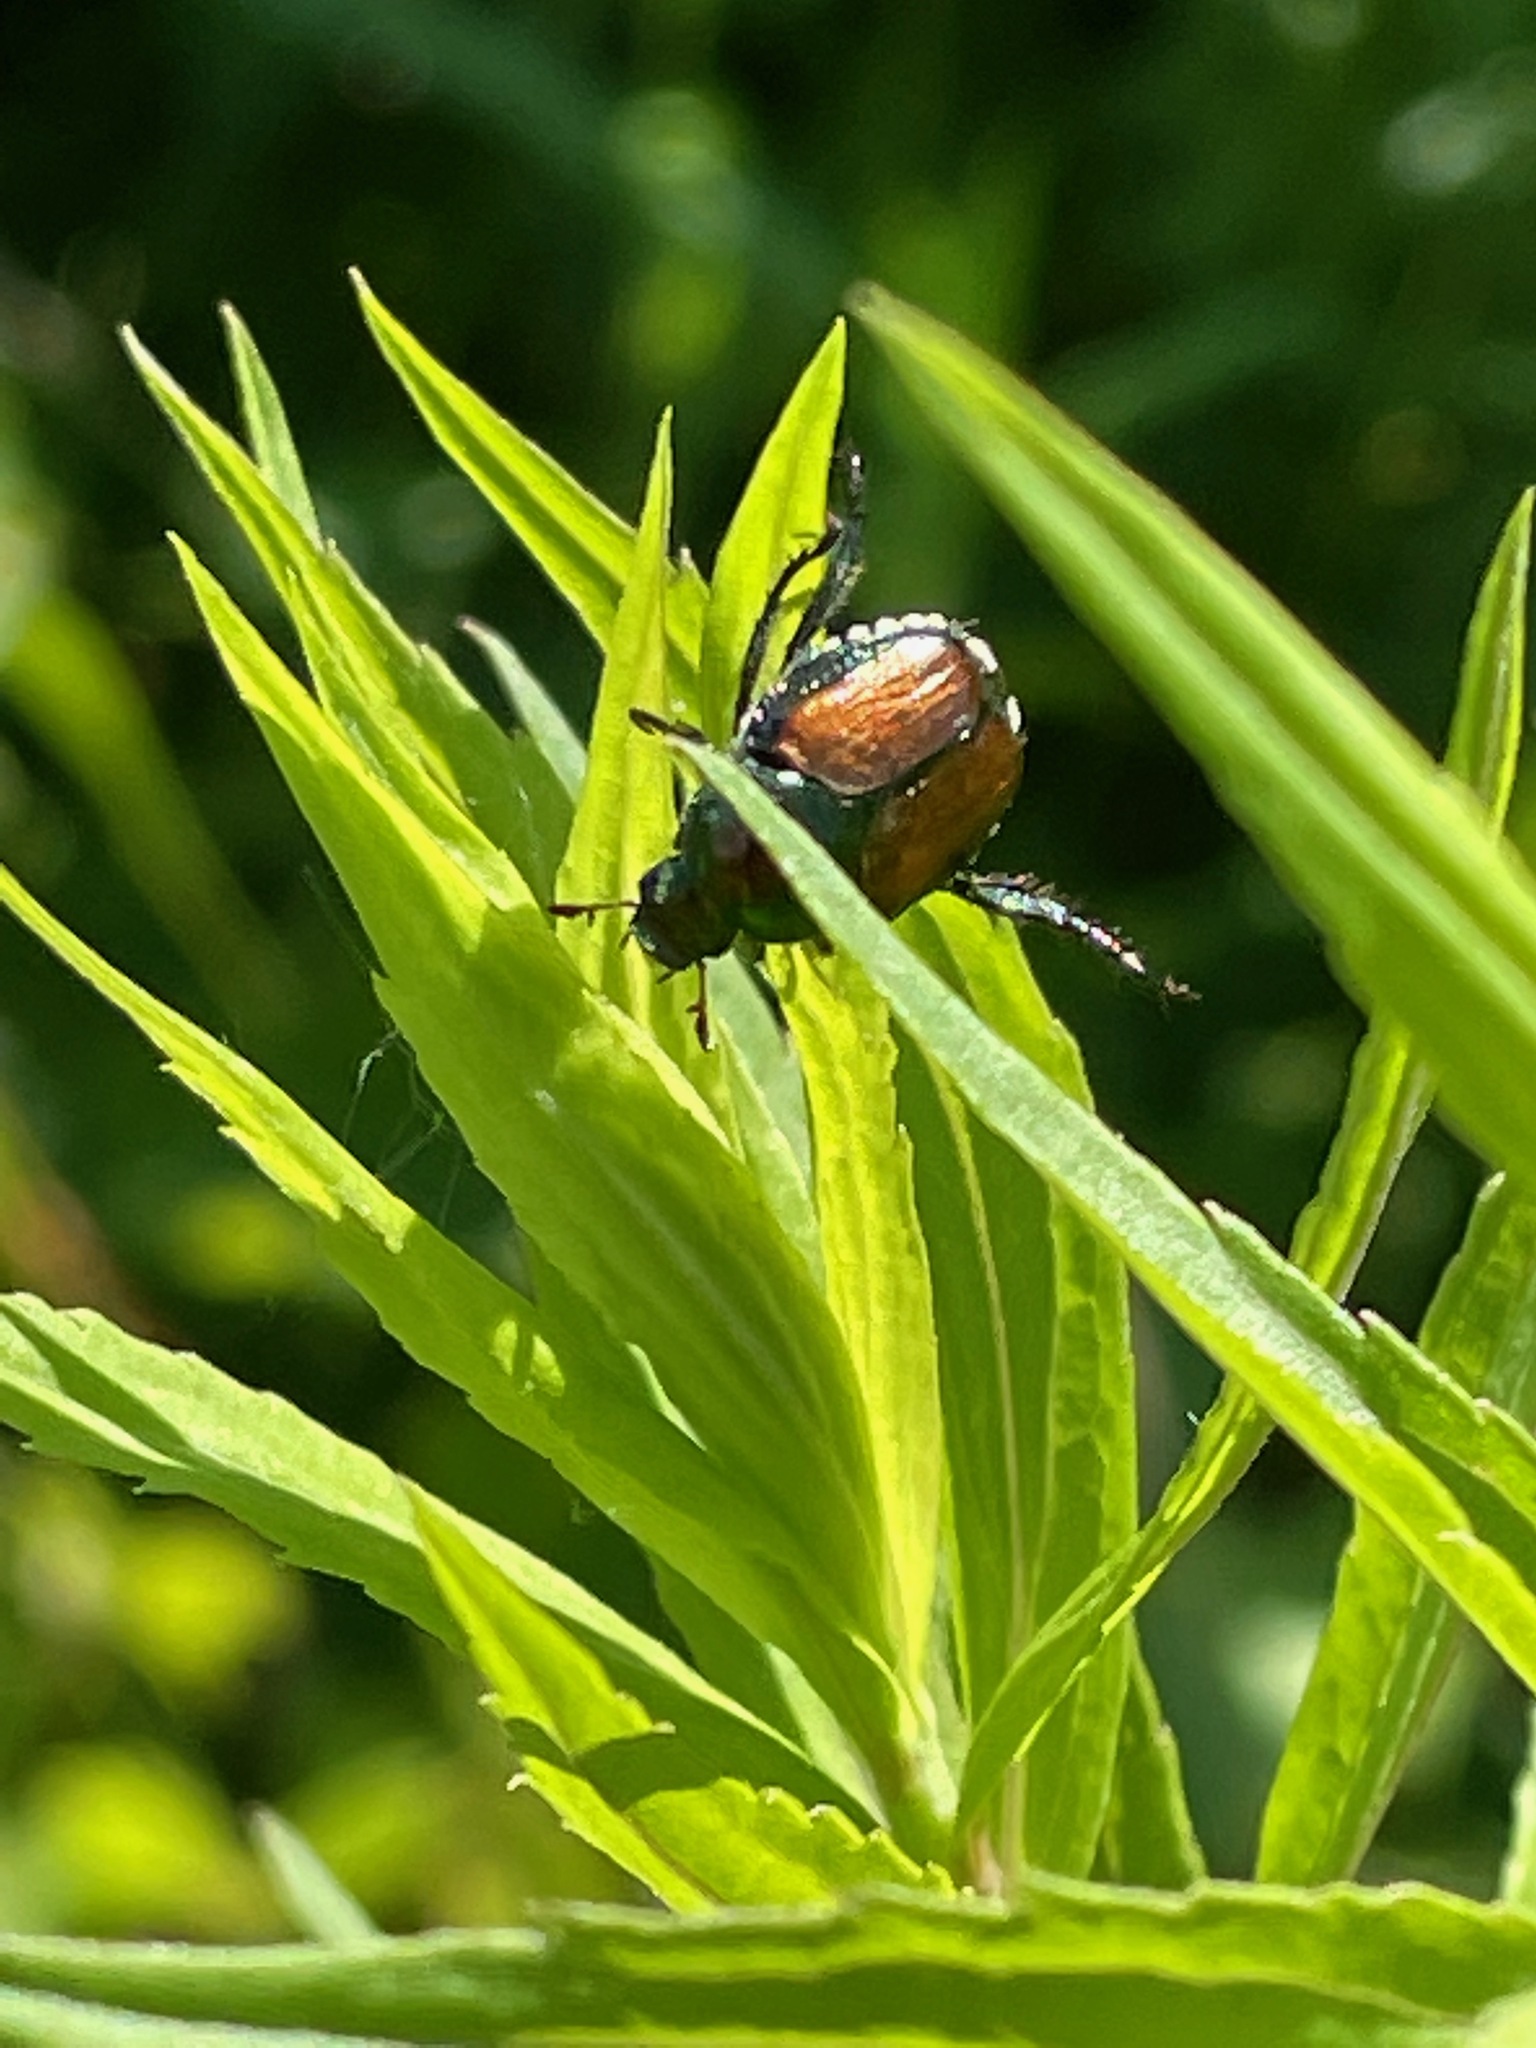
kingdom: Animalia
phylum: Arthropoda
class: Insecta
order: Coleoptera
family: Scarabaeidae
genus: Popillia
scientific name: Popillia japonica
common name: Japanese beetle
